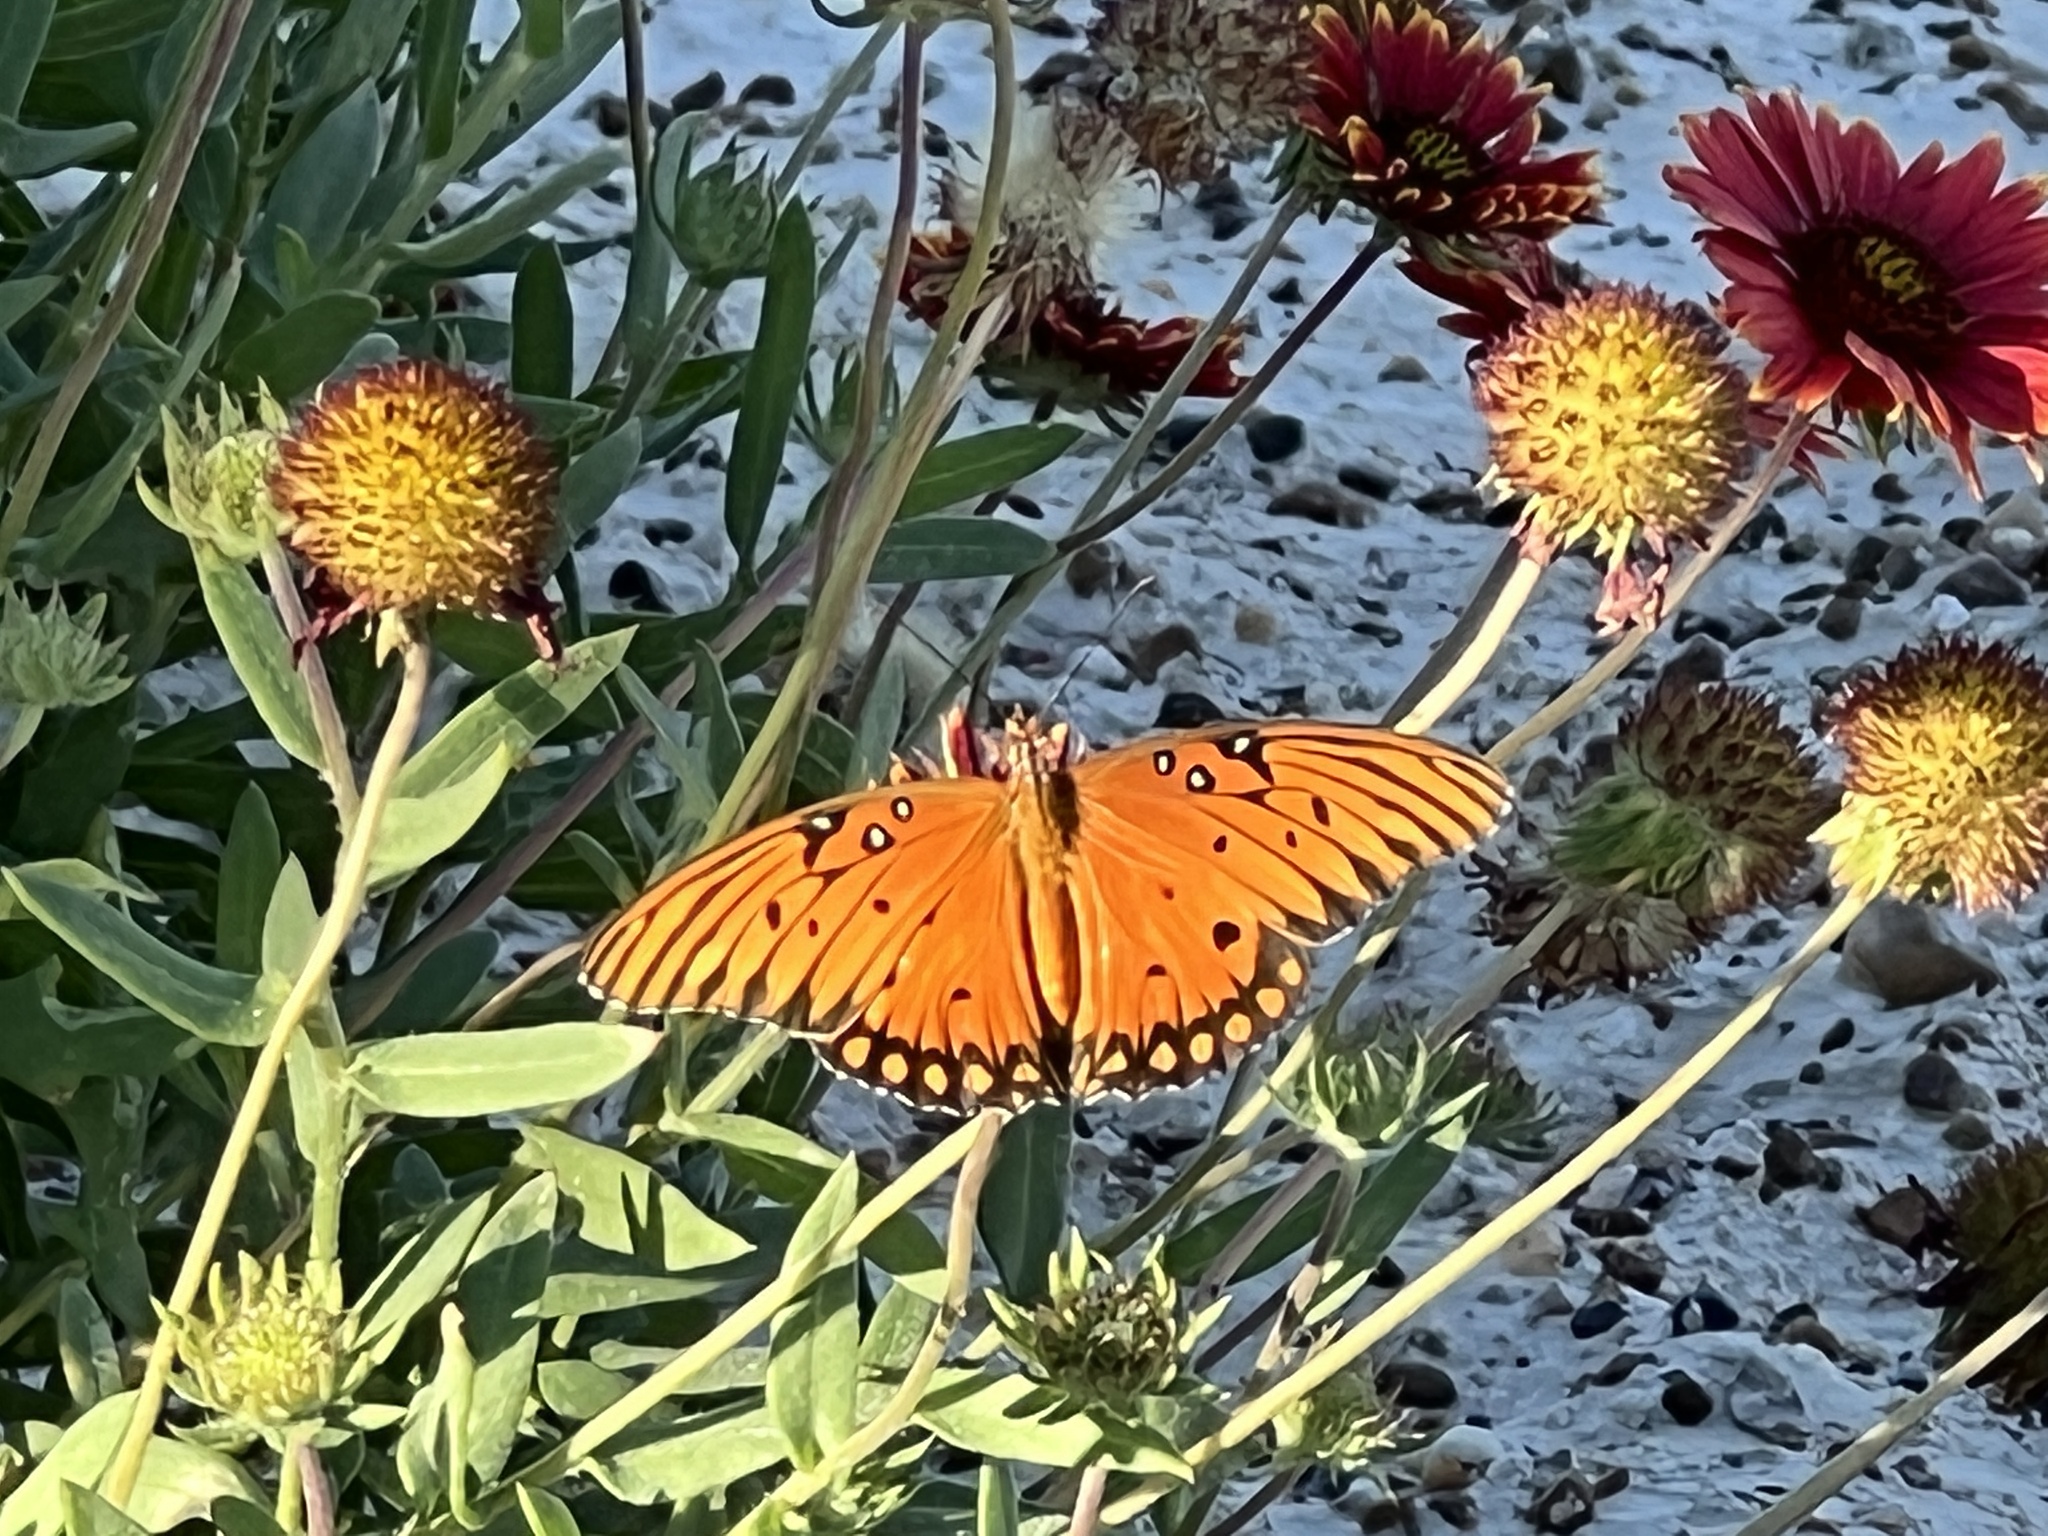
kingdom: Animalia
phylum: Arthropoda
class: Insecta
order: Lepidoptera
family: Nymphalidae
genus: Dione
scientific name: Dione vanillae
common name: Gulf fritillary
